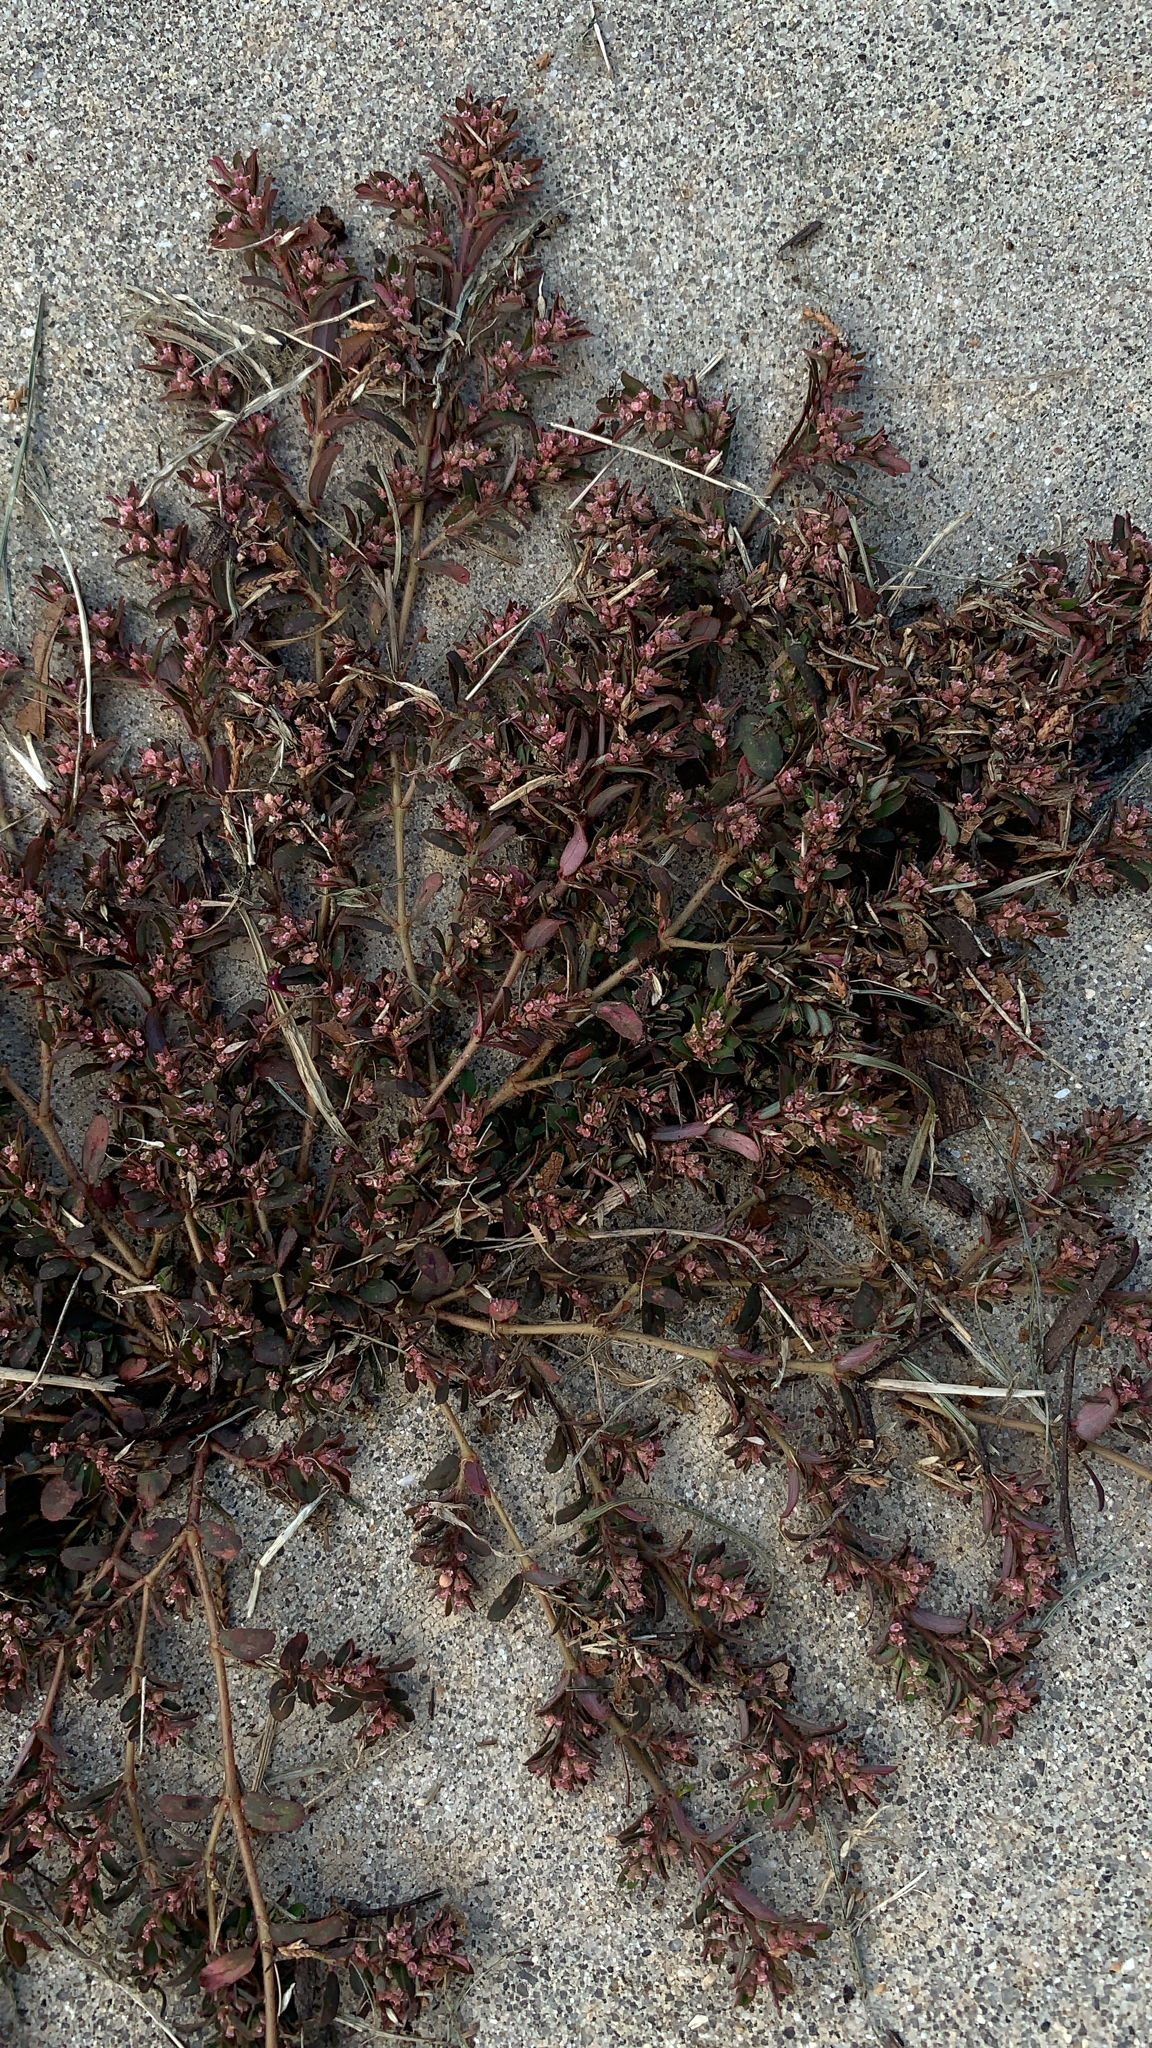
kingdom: Plantae
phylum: Tracheophyta
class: Magnoliopsida
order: Malpighiales
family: Euphorbiaceae
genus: Euphorbia
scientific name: Euphorbia maculata
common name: Spotted spurge
